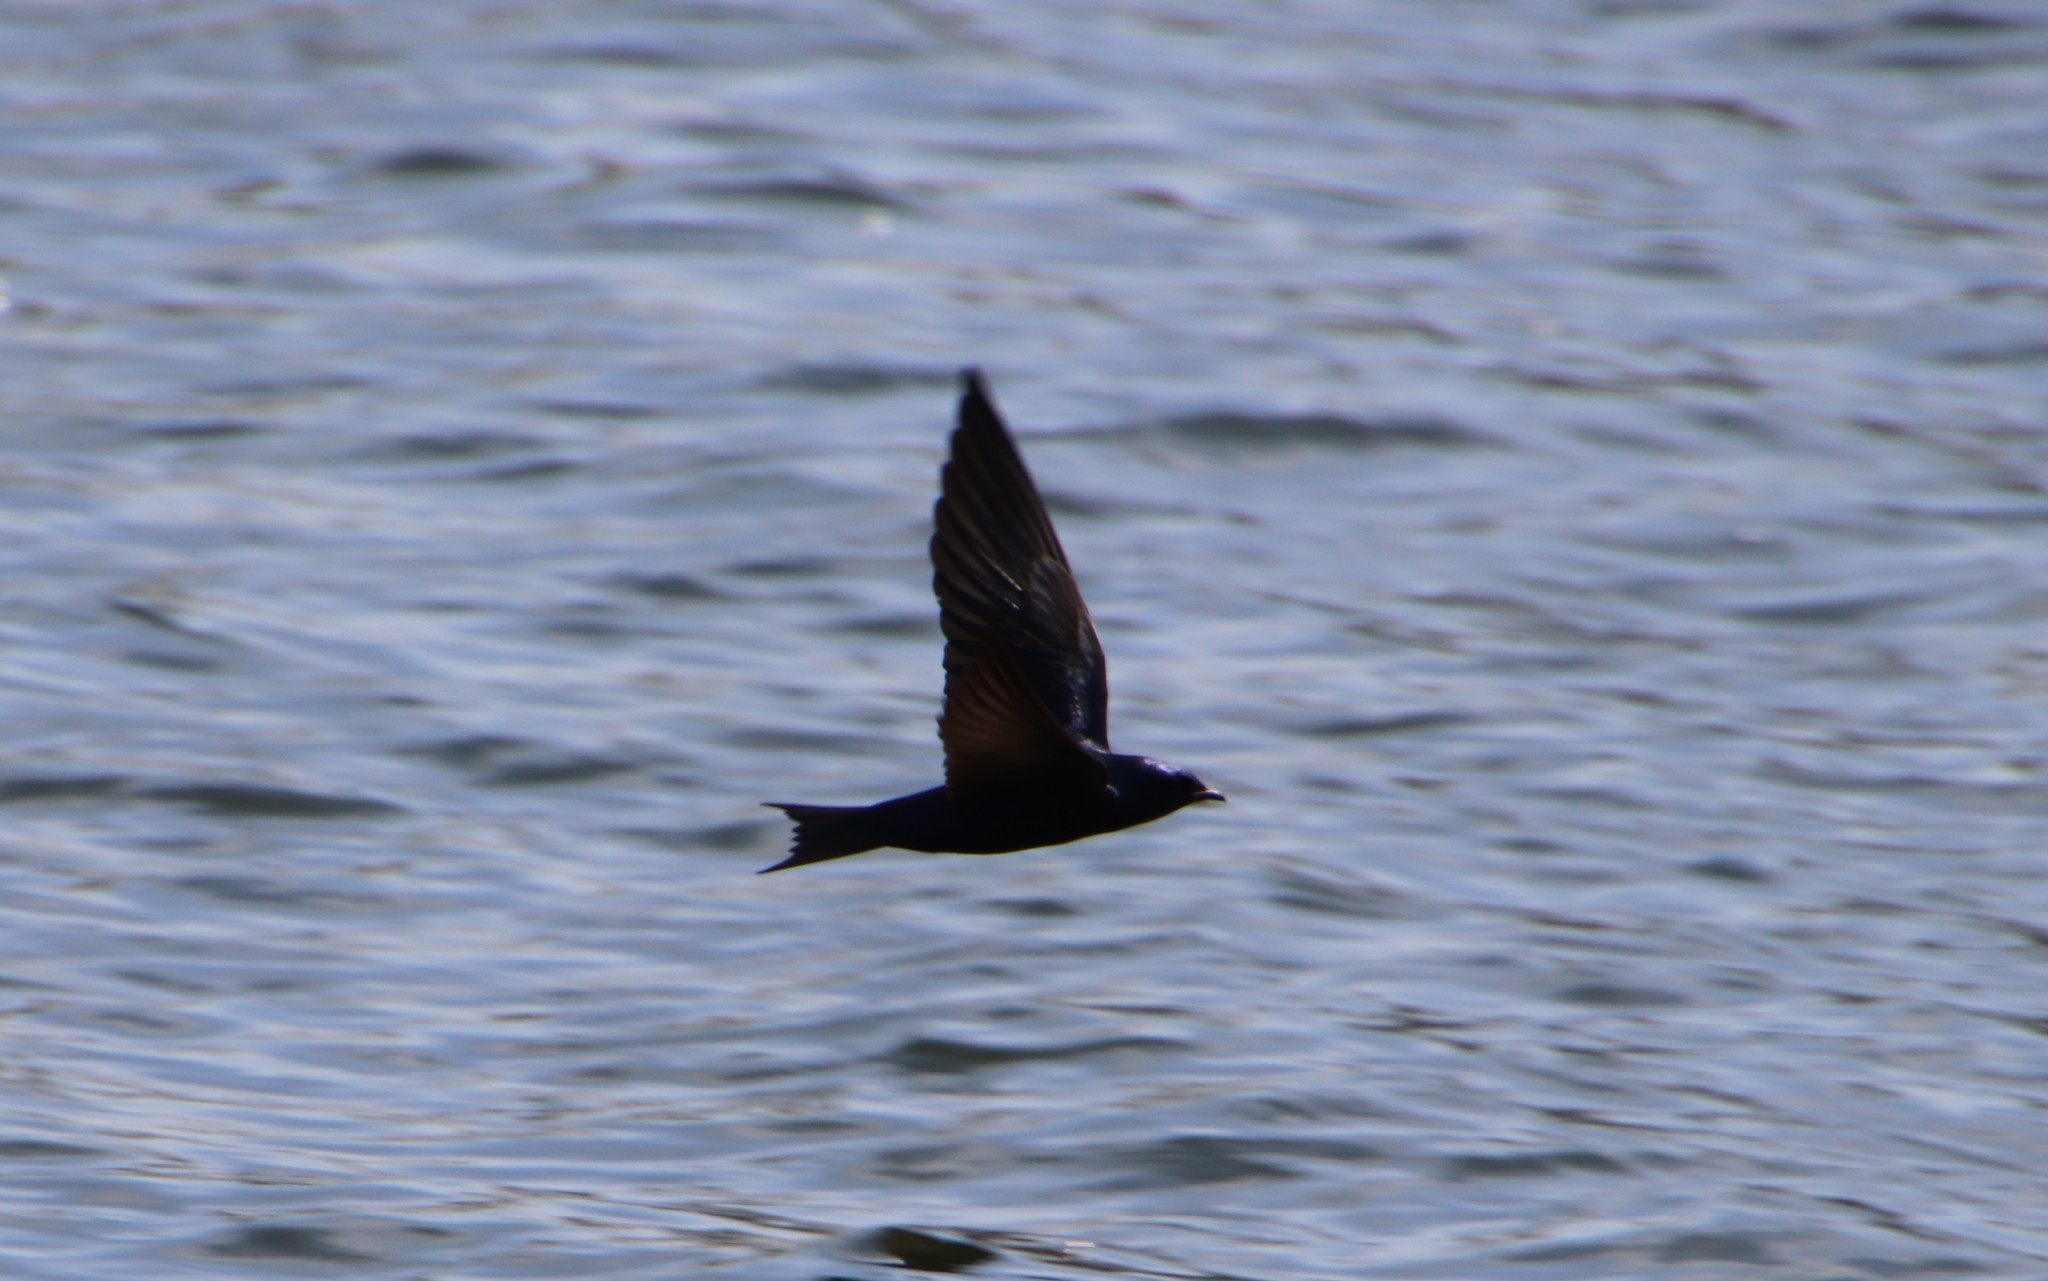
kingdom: Animalia
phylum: Chordata
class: Aves
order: Passeriformes
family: Hirundinidae
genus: Progne
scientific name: Progne subis
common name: Purple martin
